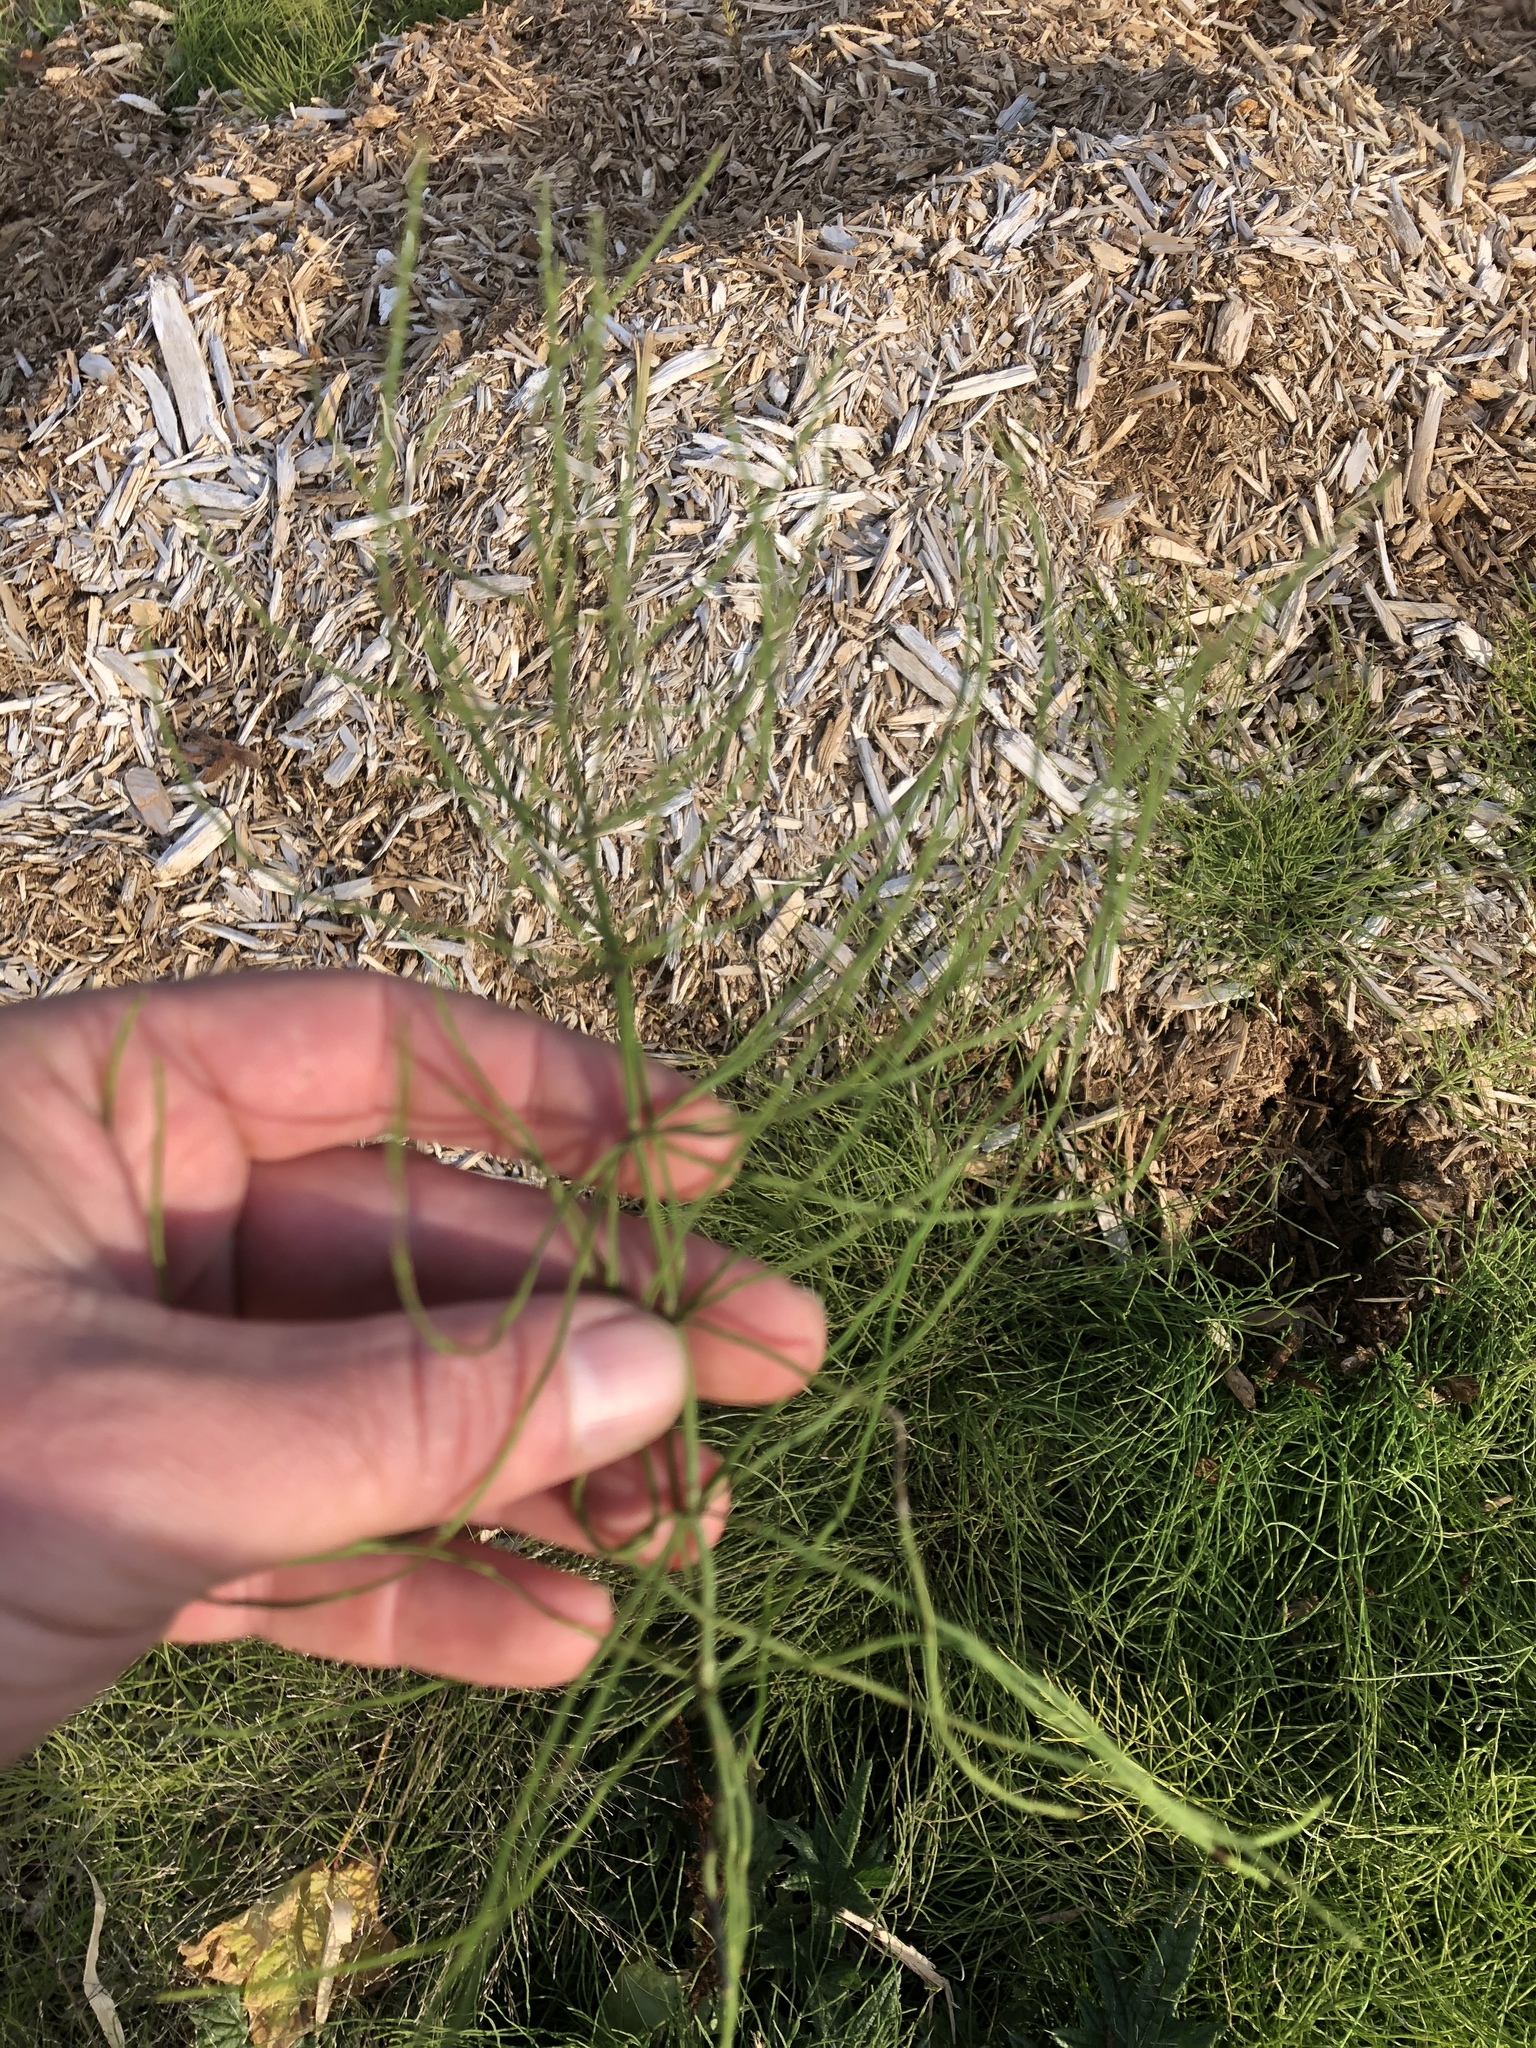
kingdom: Plantae
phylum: Tracheophyta
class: Polypodiopsida
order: Equisetales
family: Equisetaceae
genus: Equisetum
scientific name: Equisetum arvense
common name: Field horsetail
